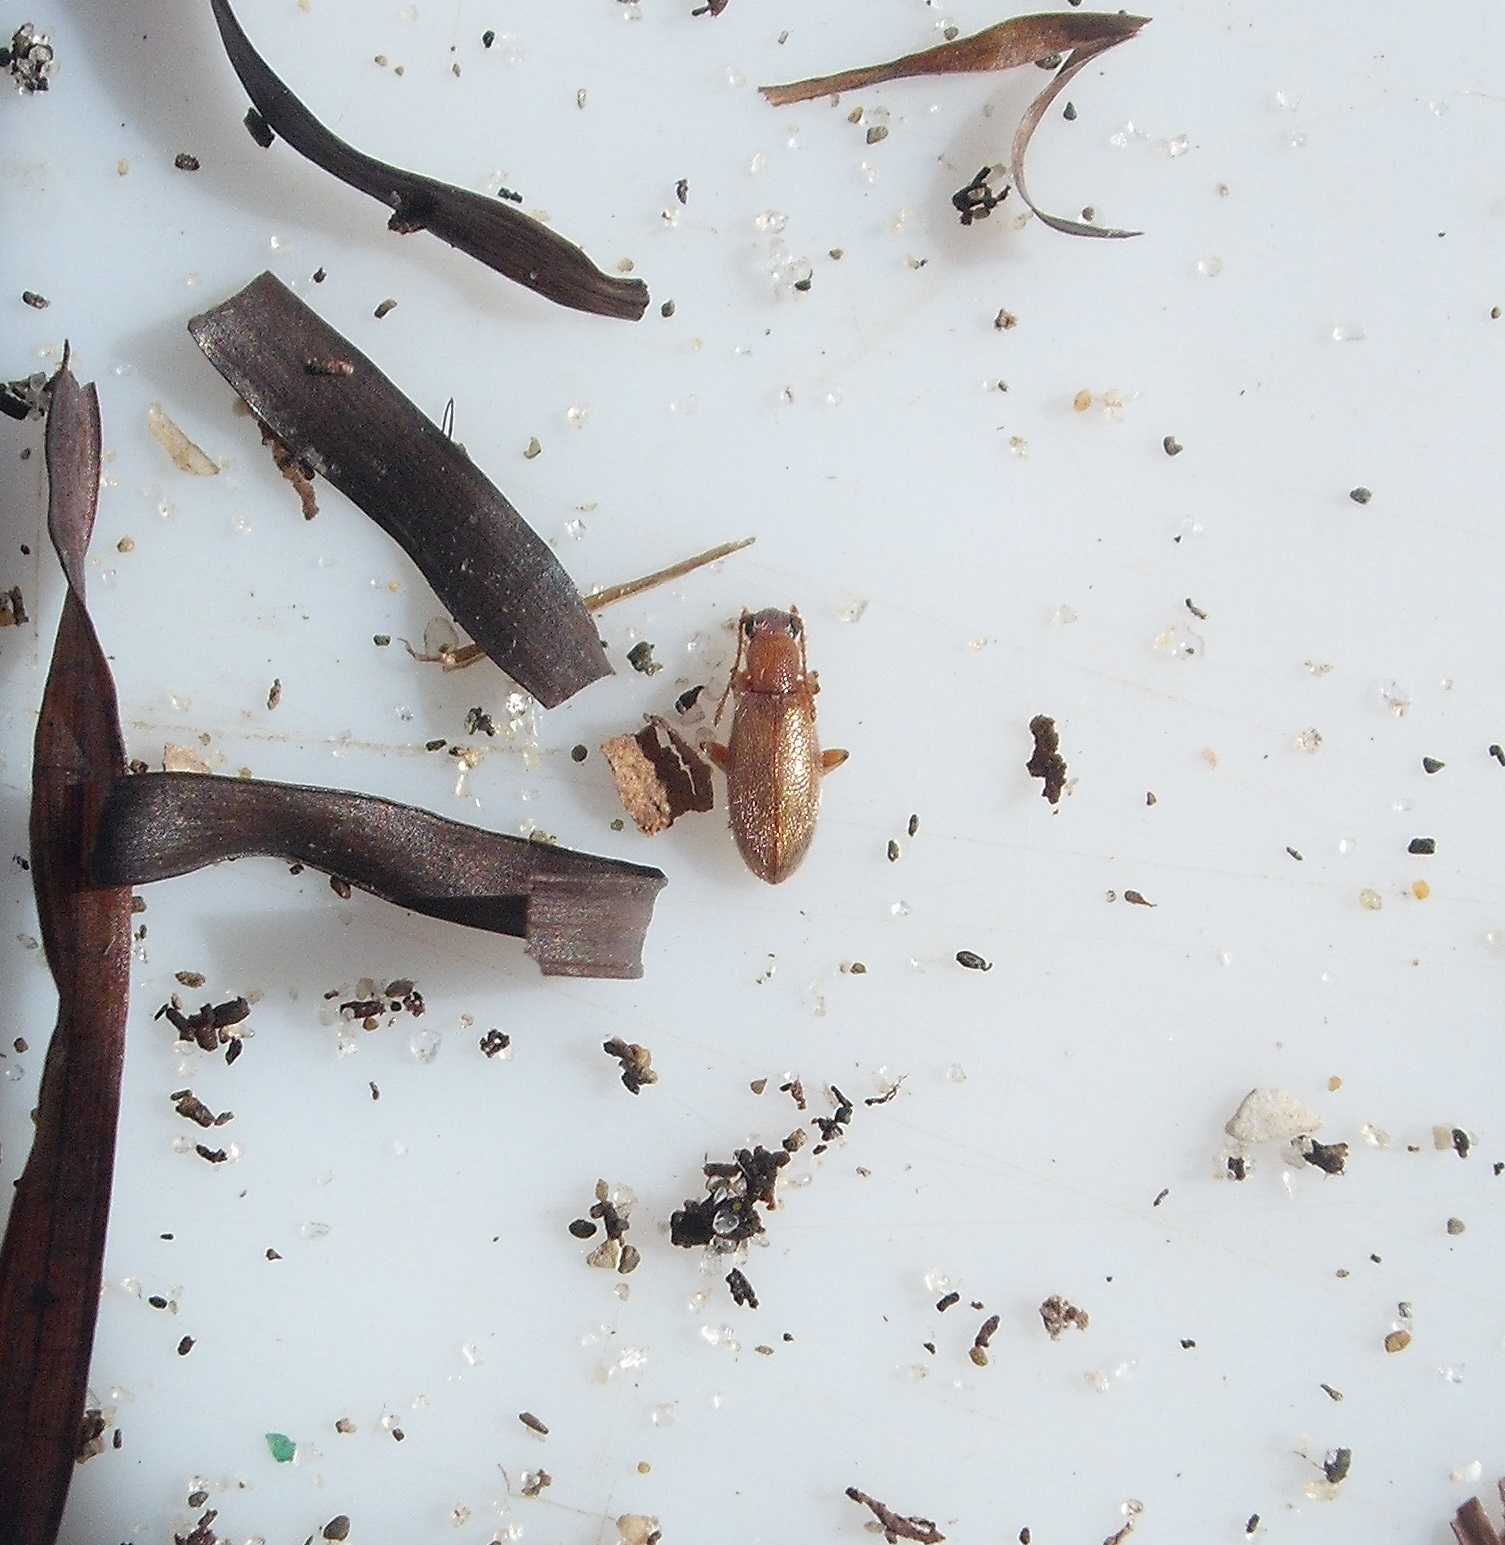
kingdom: Animalia
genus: Lagrioda
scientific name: Lagrioda brounii
